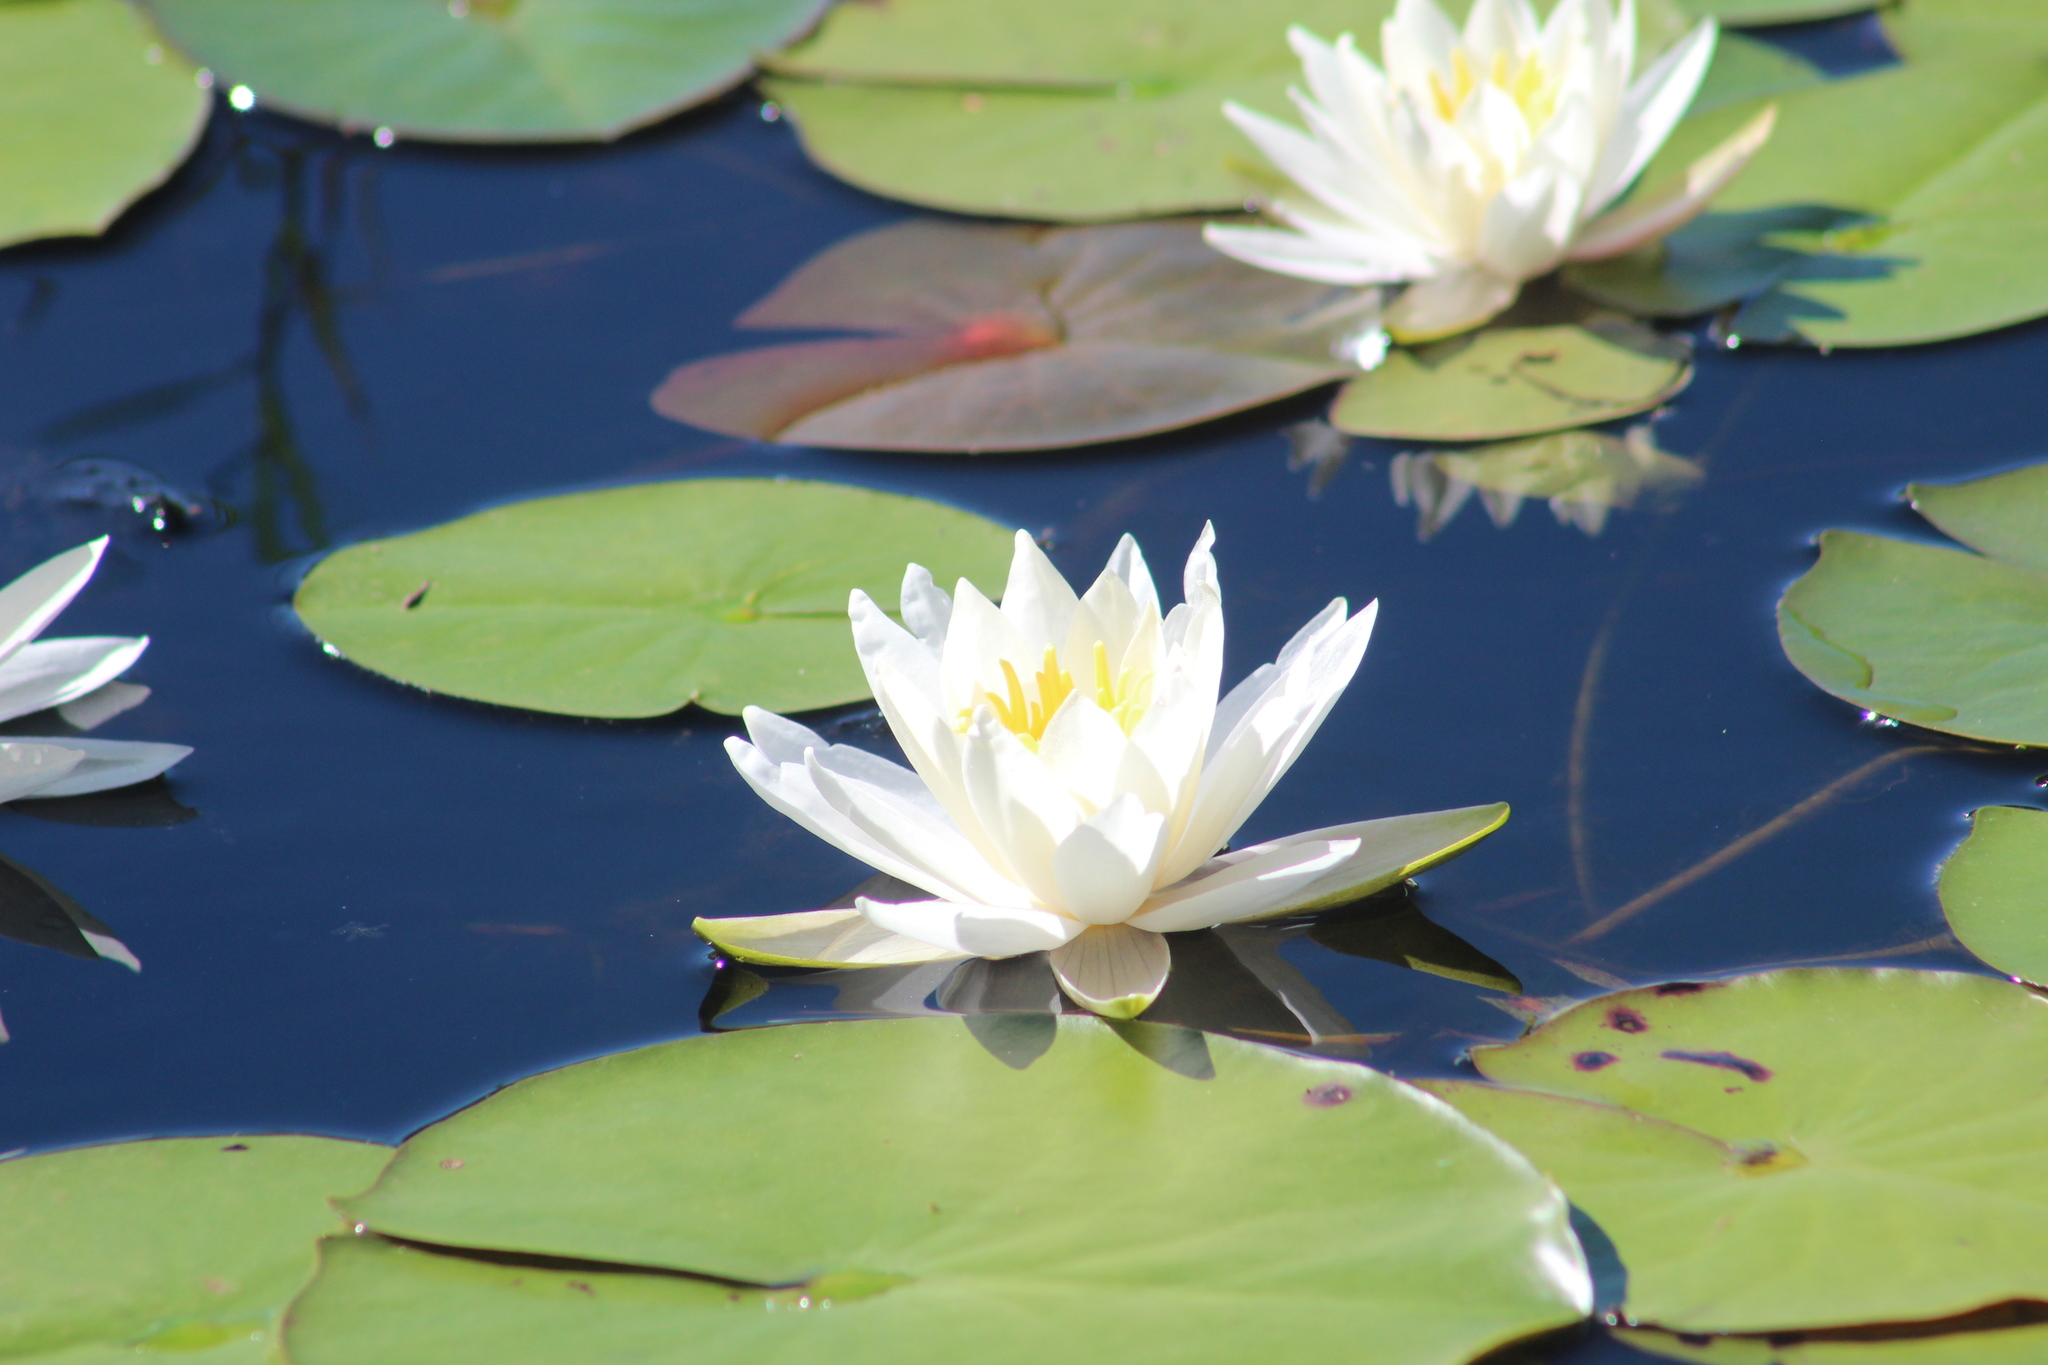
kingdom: Plantae
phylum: Tracheophyta
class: Magnoliopsida
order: Nymphaeales
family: Nymphaeaceae
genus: Nymphaea
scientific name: Nymphaea odorata
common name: Fragrant water-lily
